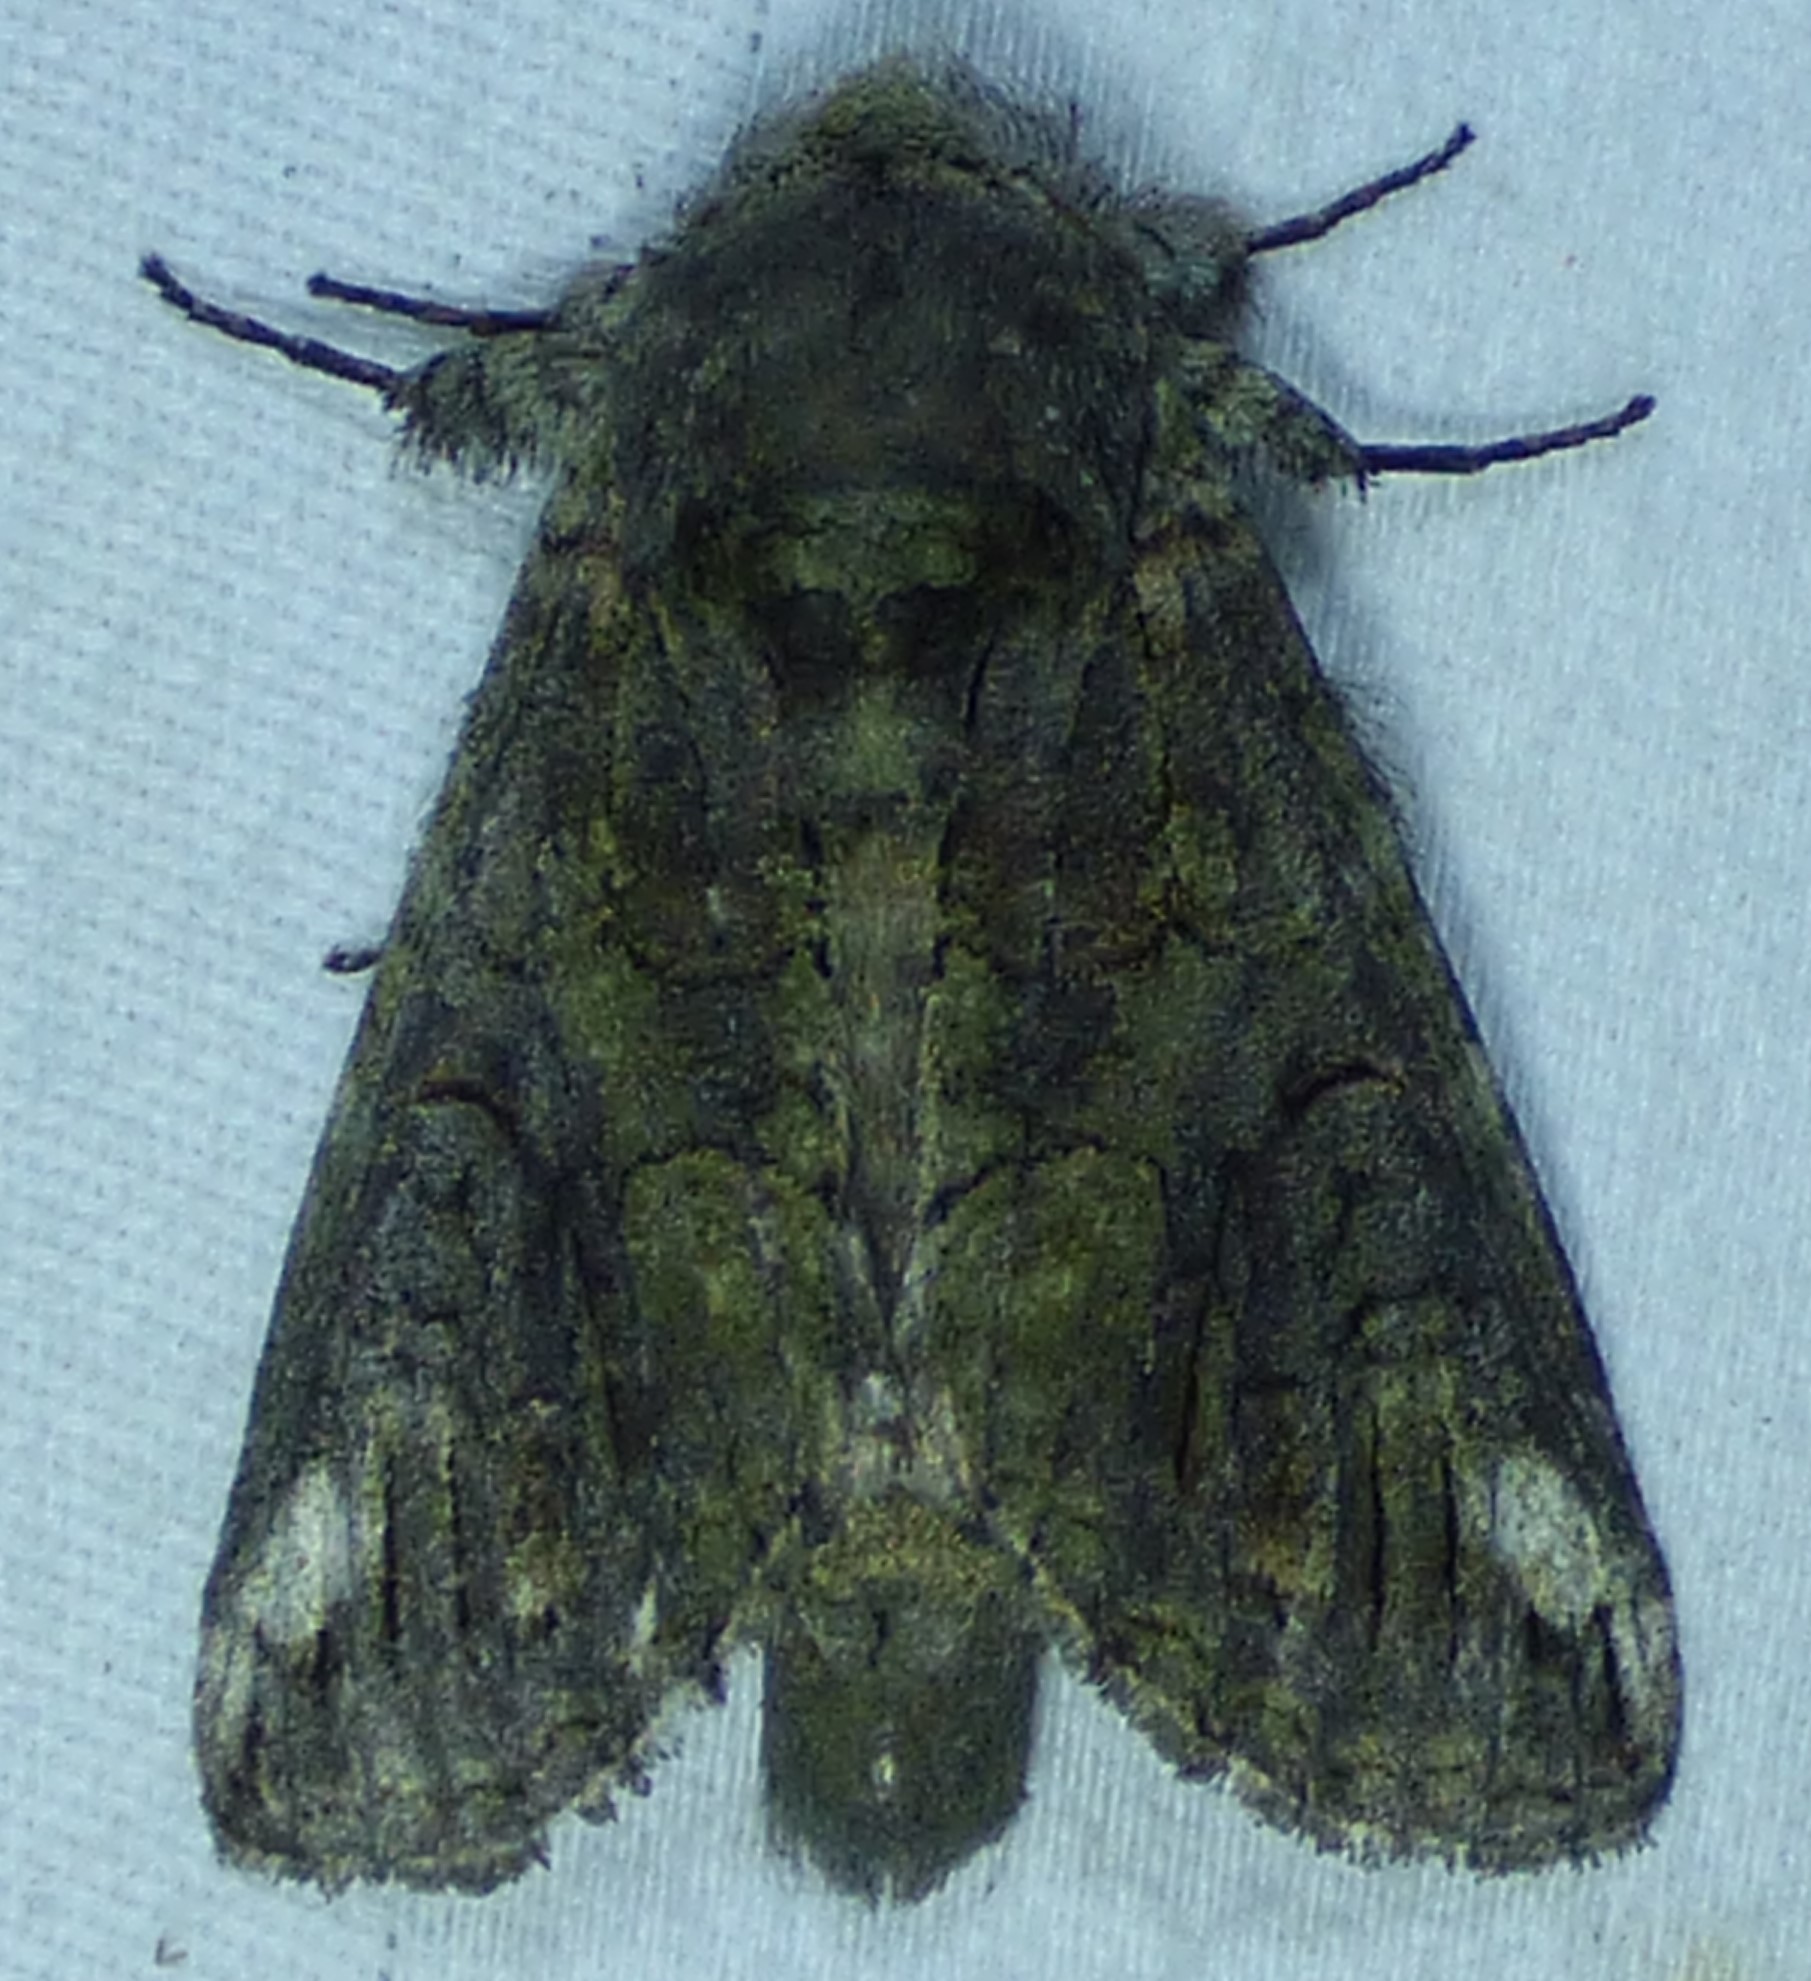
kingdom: Animalia
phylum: Arthropoda
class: Insecta
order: Lepidoptera
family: Notodontidae
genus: Heterocampa
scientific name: Heterocampa obliqua
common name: Oblique heterocampa
